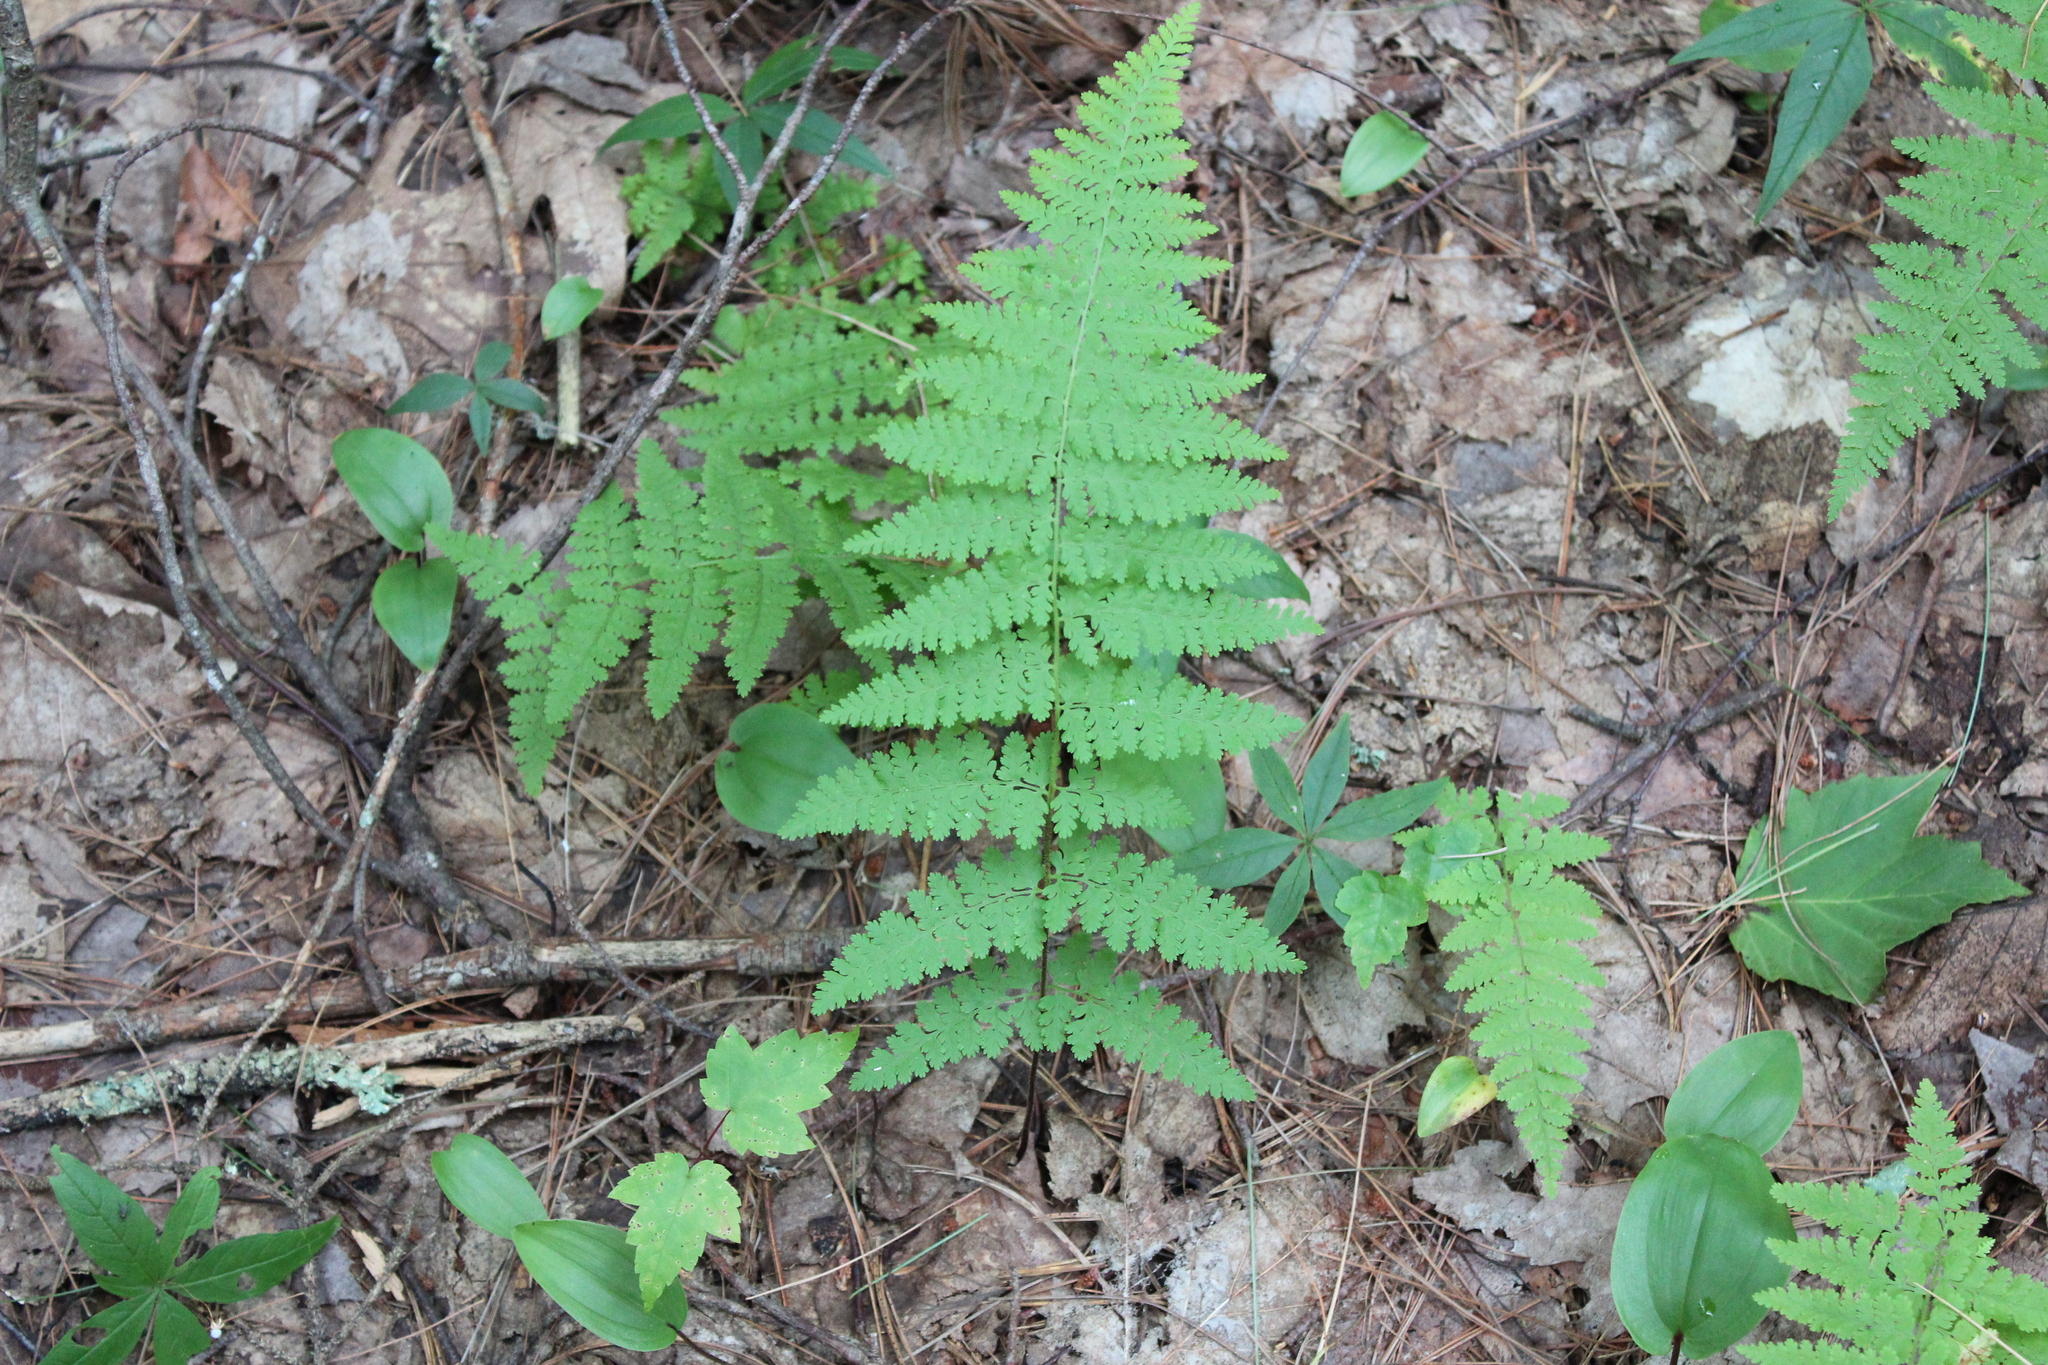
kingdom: Plantae
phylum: Tracheophyta
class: Polypodiopsida
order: Polypodiales
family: Dennstaedtiaceae
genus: Sitobolium
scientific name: Sitobolium punctilobum
